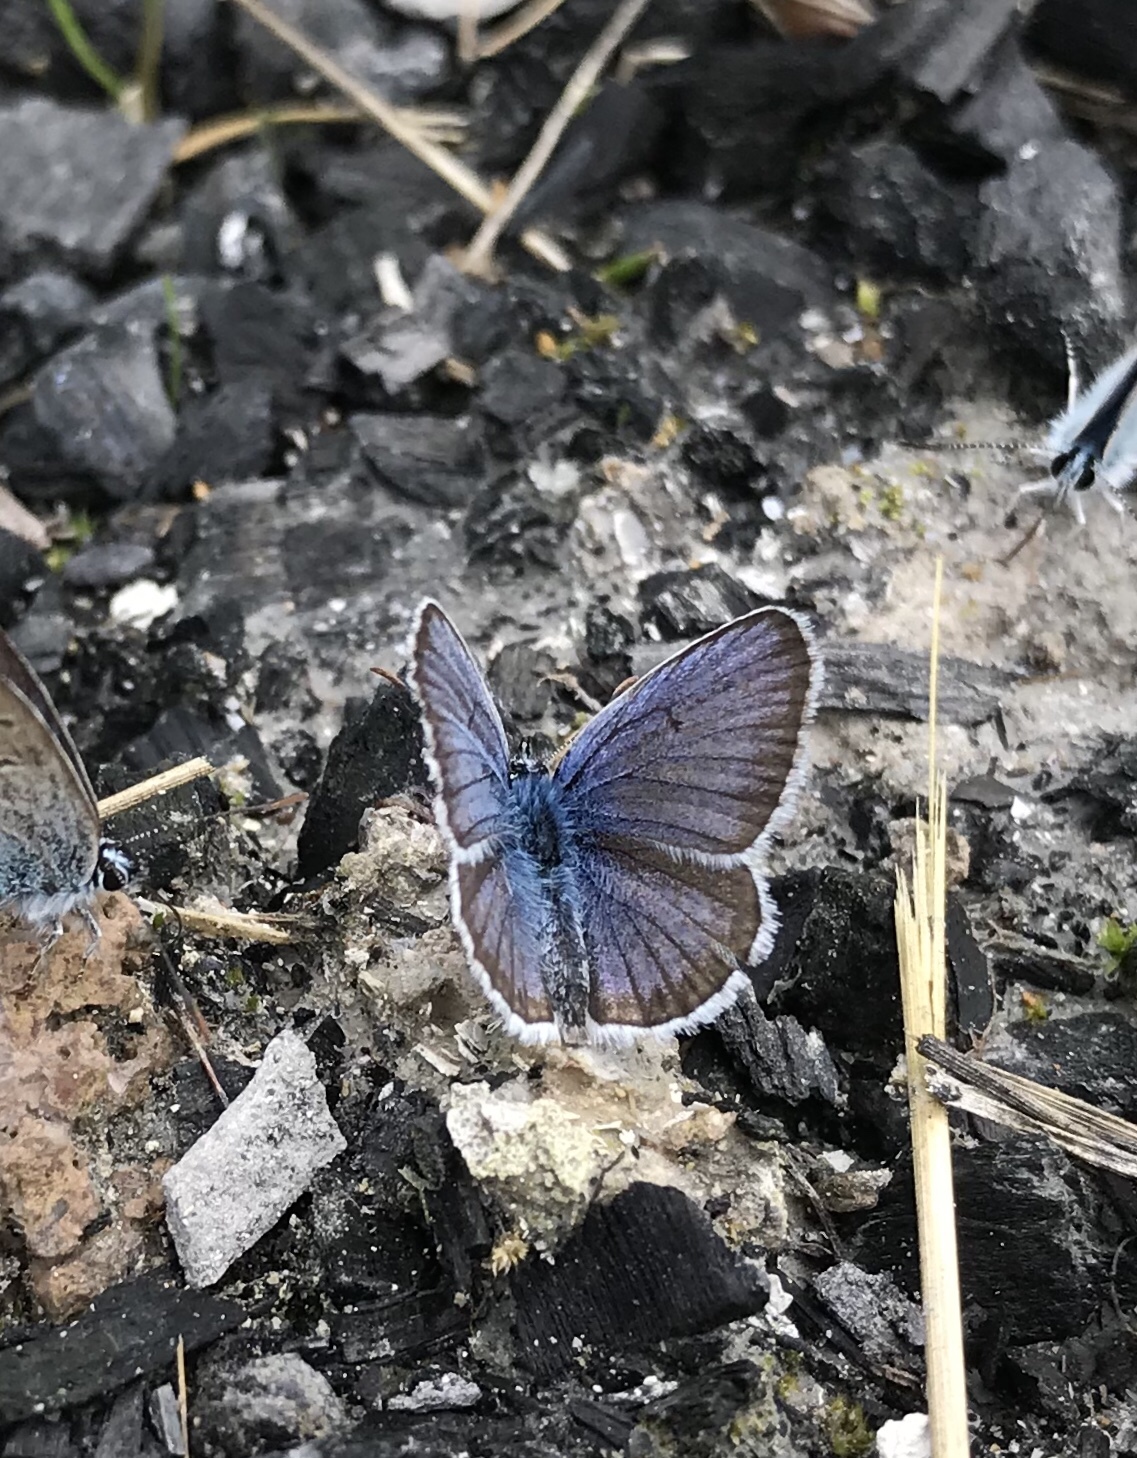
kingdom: Animalia
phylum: Arthropoda
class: Insecta
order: Lepidoptera
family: Lycaenidae
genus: Plebejus
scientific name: Plebejus argus
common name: Silver-studded blue
